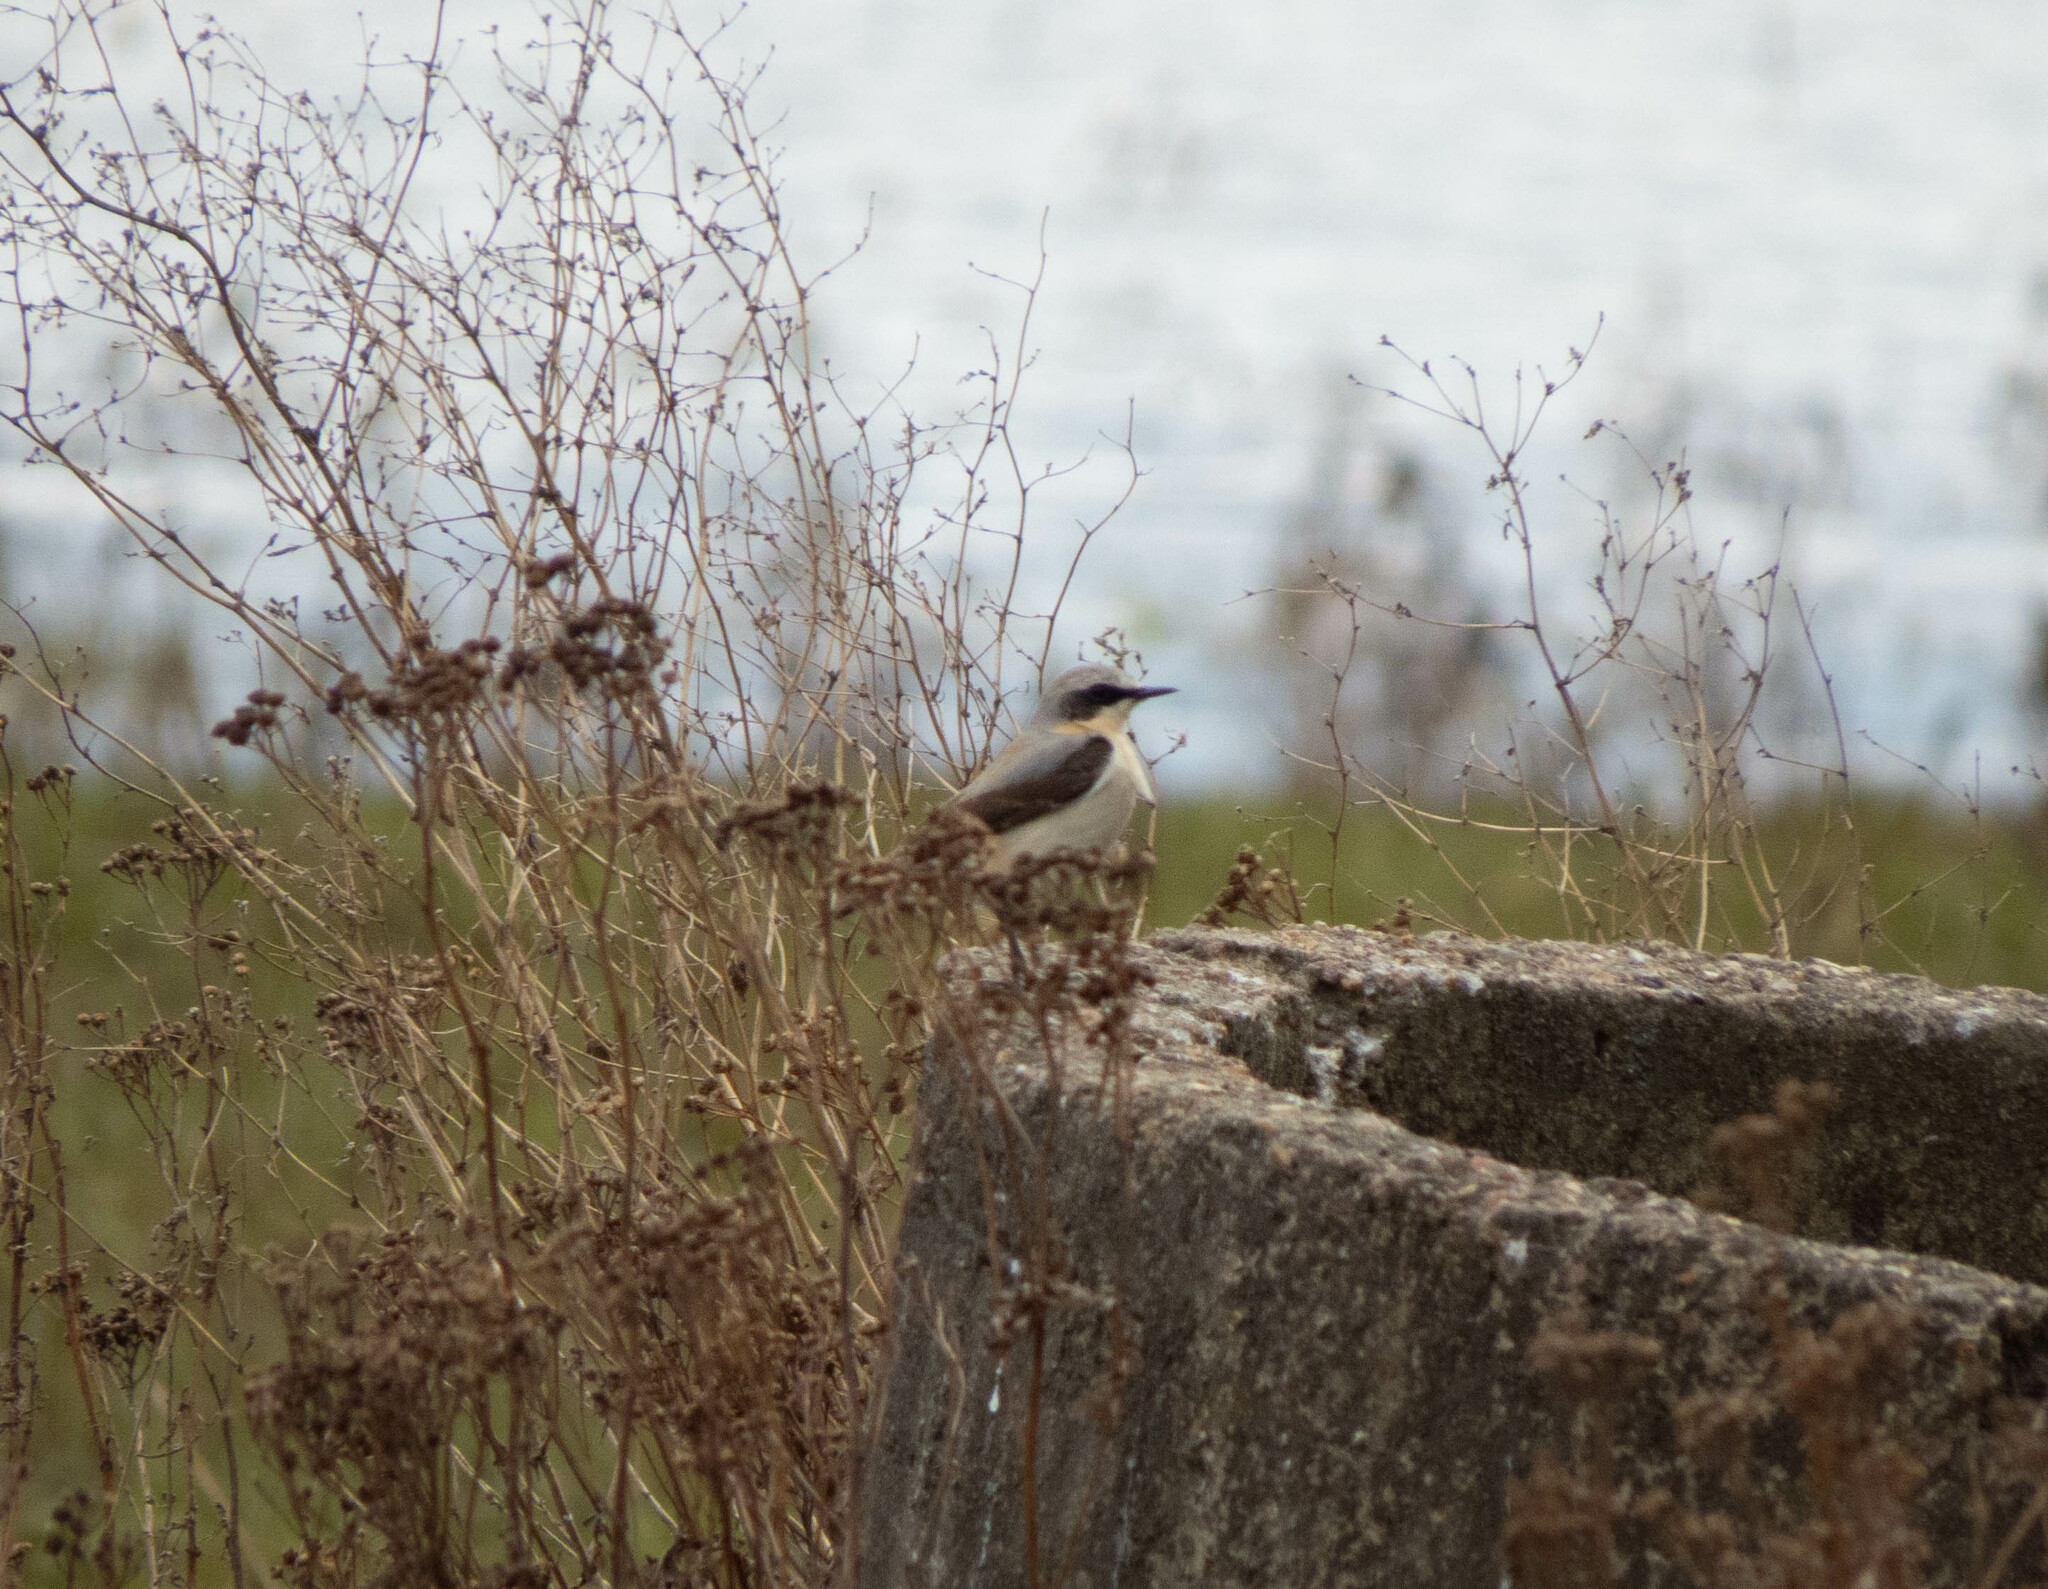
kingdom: Animalia
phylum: Chordata
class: Aves
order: Passeriformes
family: Muscicapidae
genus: Oenanthe
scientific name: Oenanthe oenanthe
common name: Northern wheatear
